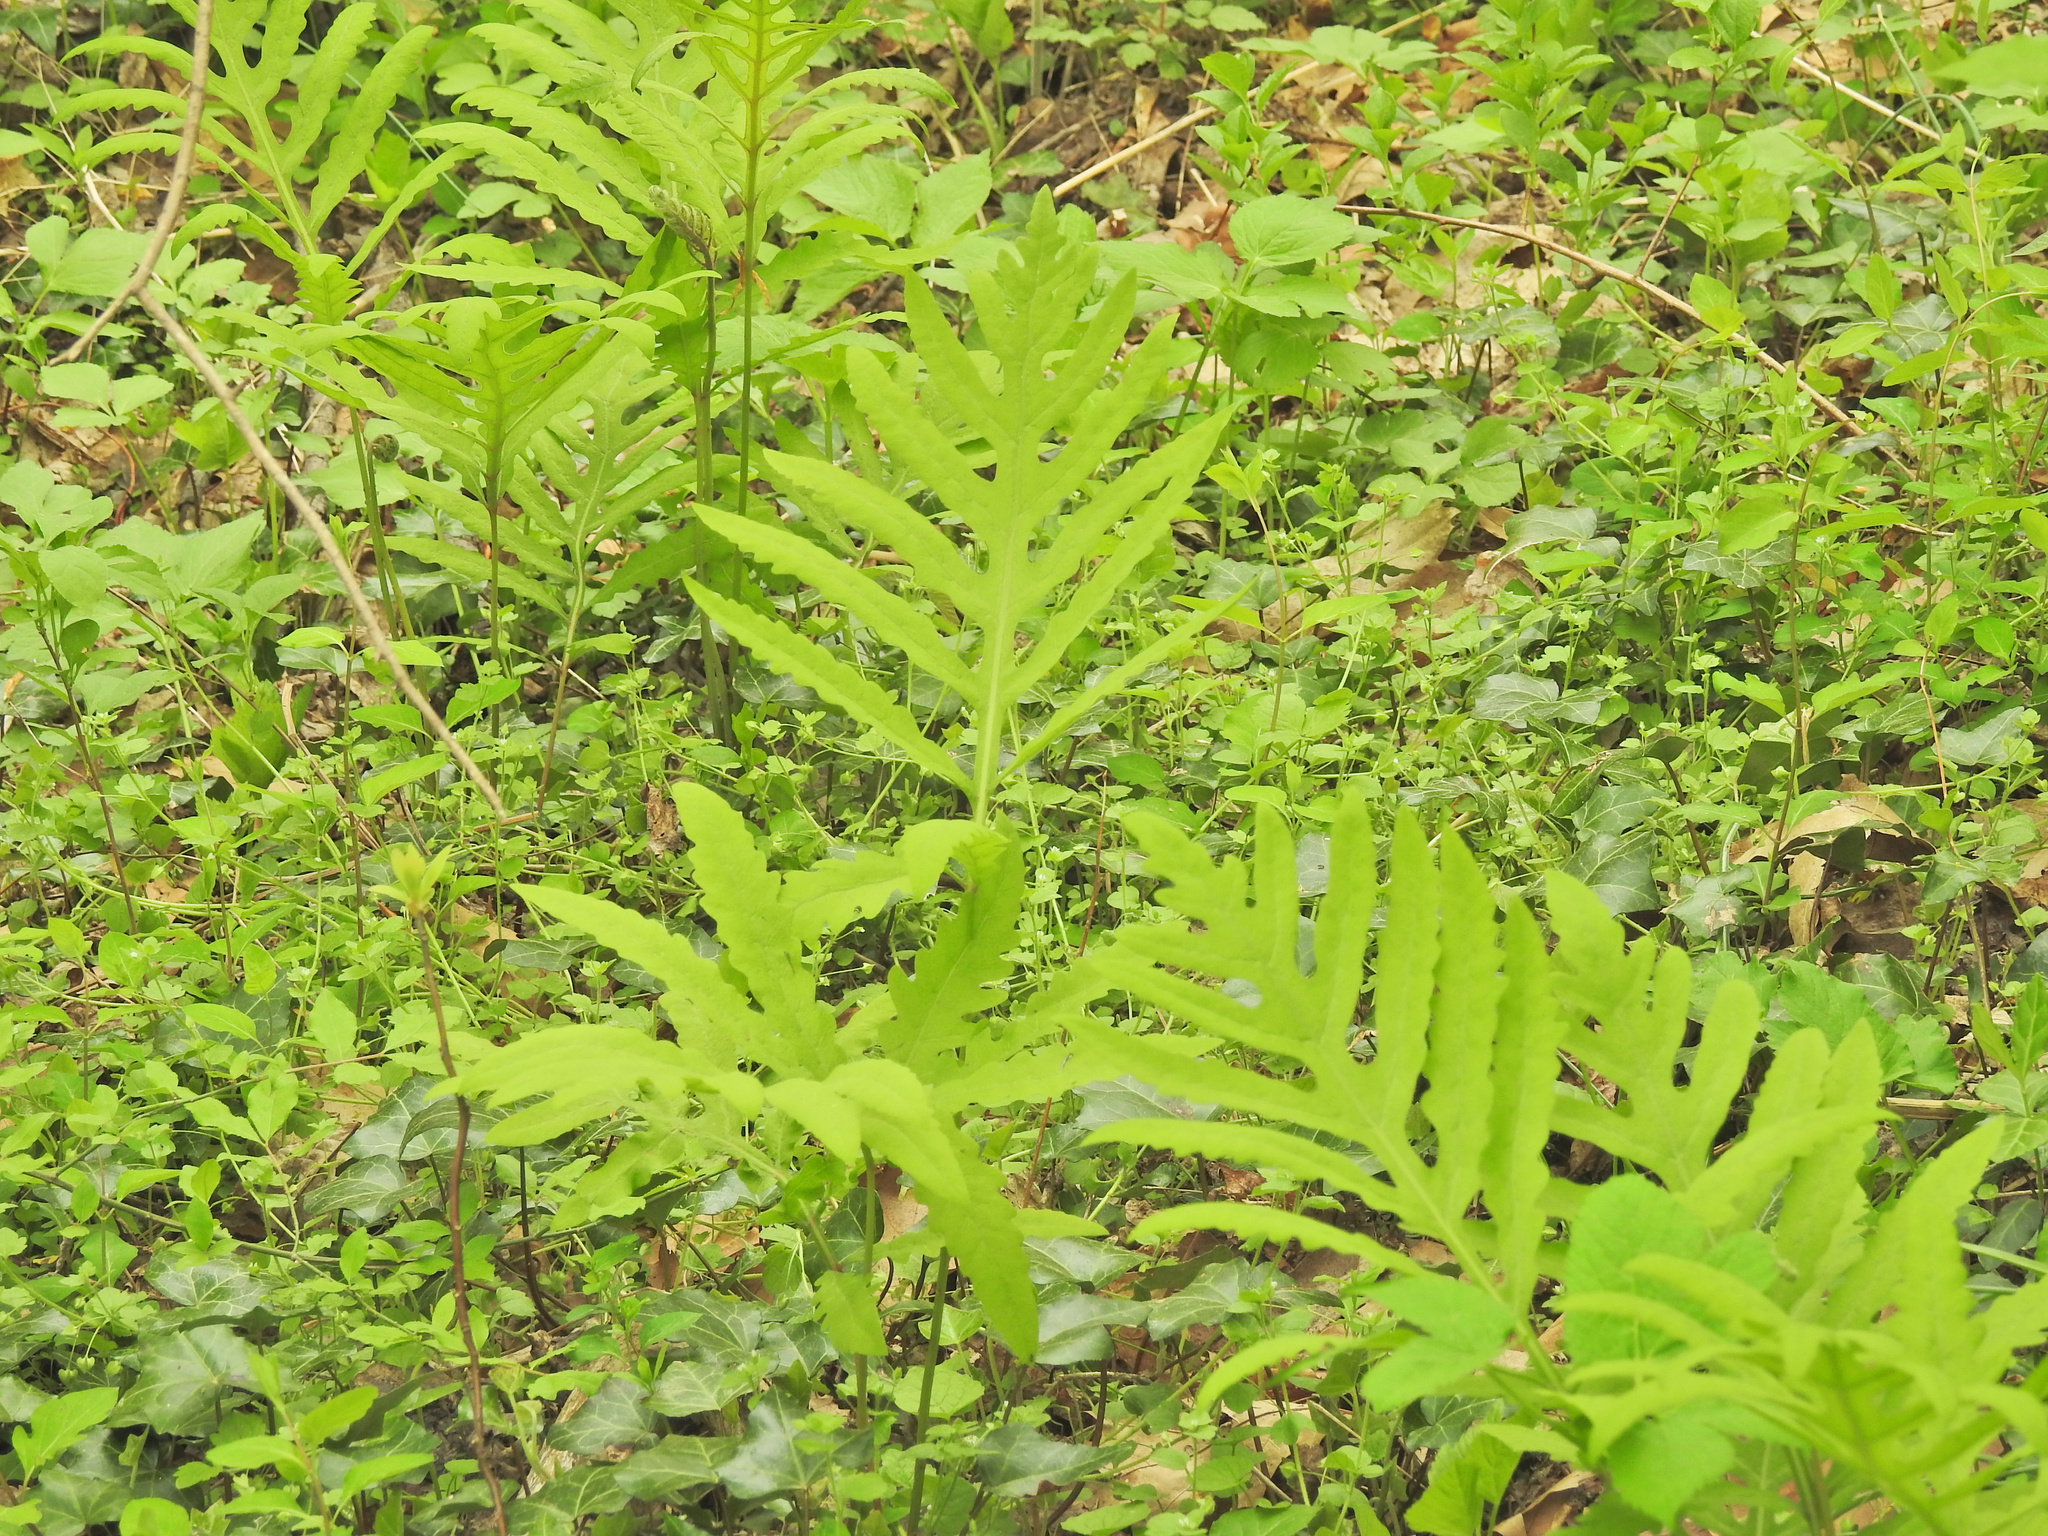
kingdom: Plantae
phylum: Tracheophyta
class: Polypodiopsida
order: Polypodiales
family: Onocleaceae
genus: Onoclea
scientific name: Onoclea sensibilis
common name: Sensitive fern
